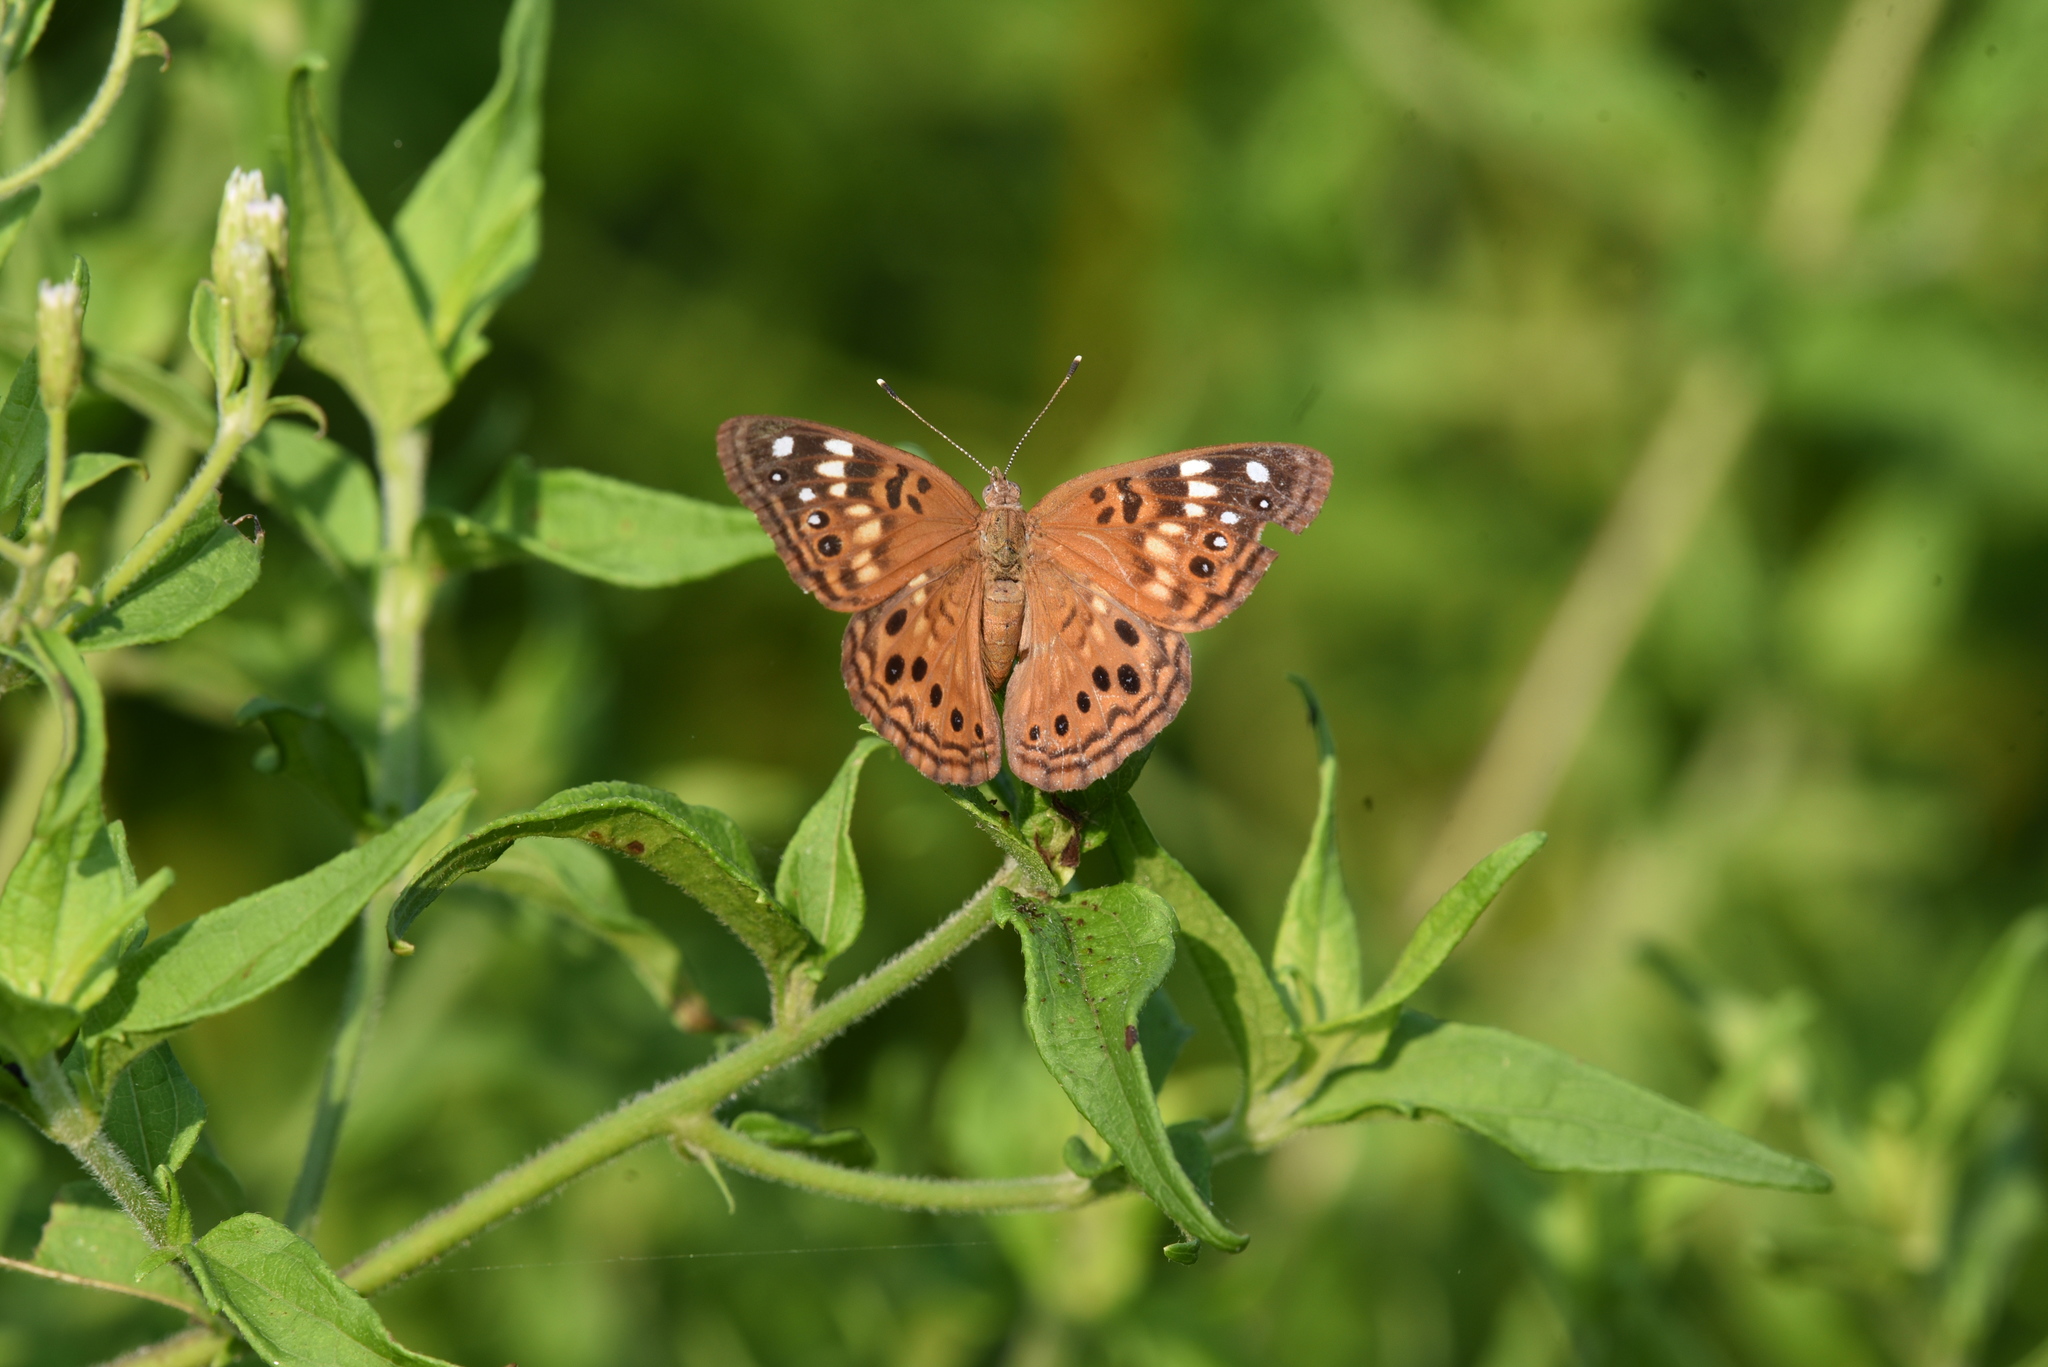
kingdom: Animalia
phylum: Arthropoda
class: Insecta
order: Lepidoptera
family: Nymphalidae
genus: Asterocampa
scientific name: Asterocampa celtis
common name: Hackberry emperor
